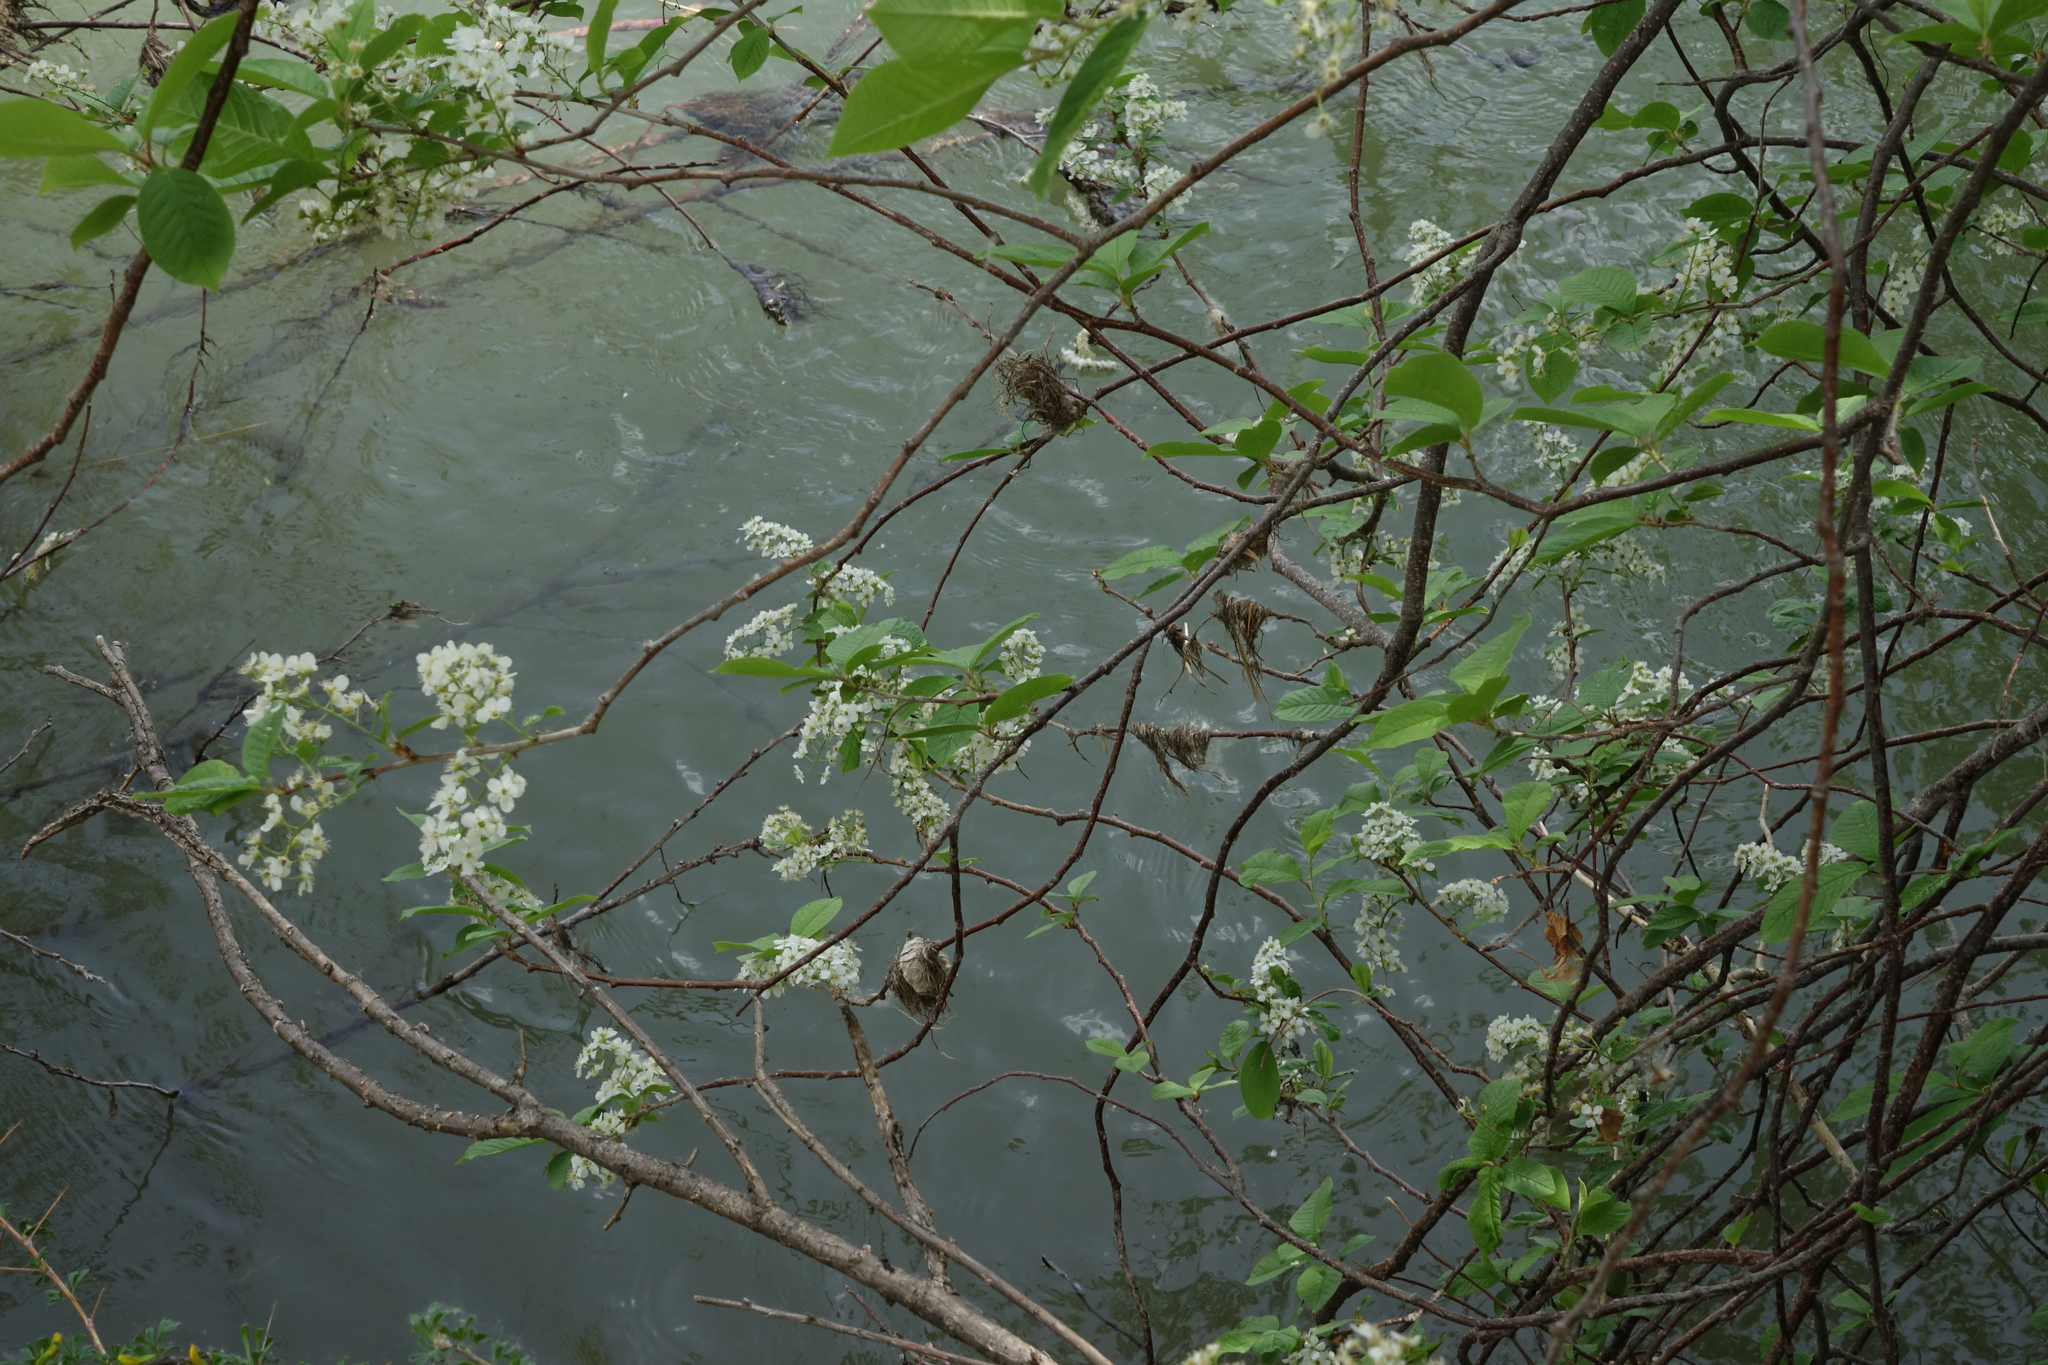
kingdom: Plantae
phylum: Tracheophyta
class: Magnoliopsida
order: Rosales
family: Rosaceae
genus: Prunus
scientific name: Prunus padus
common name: Bird cherry
